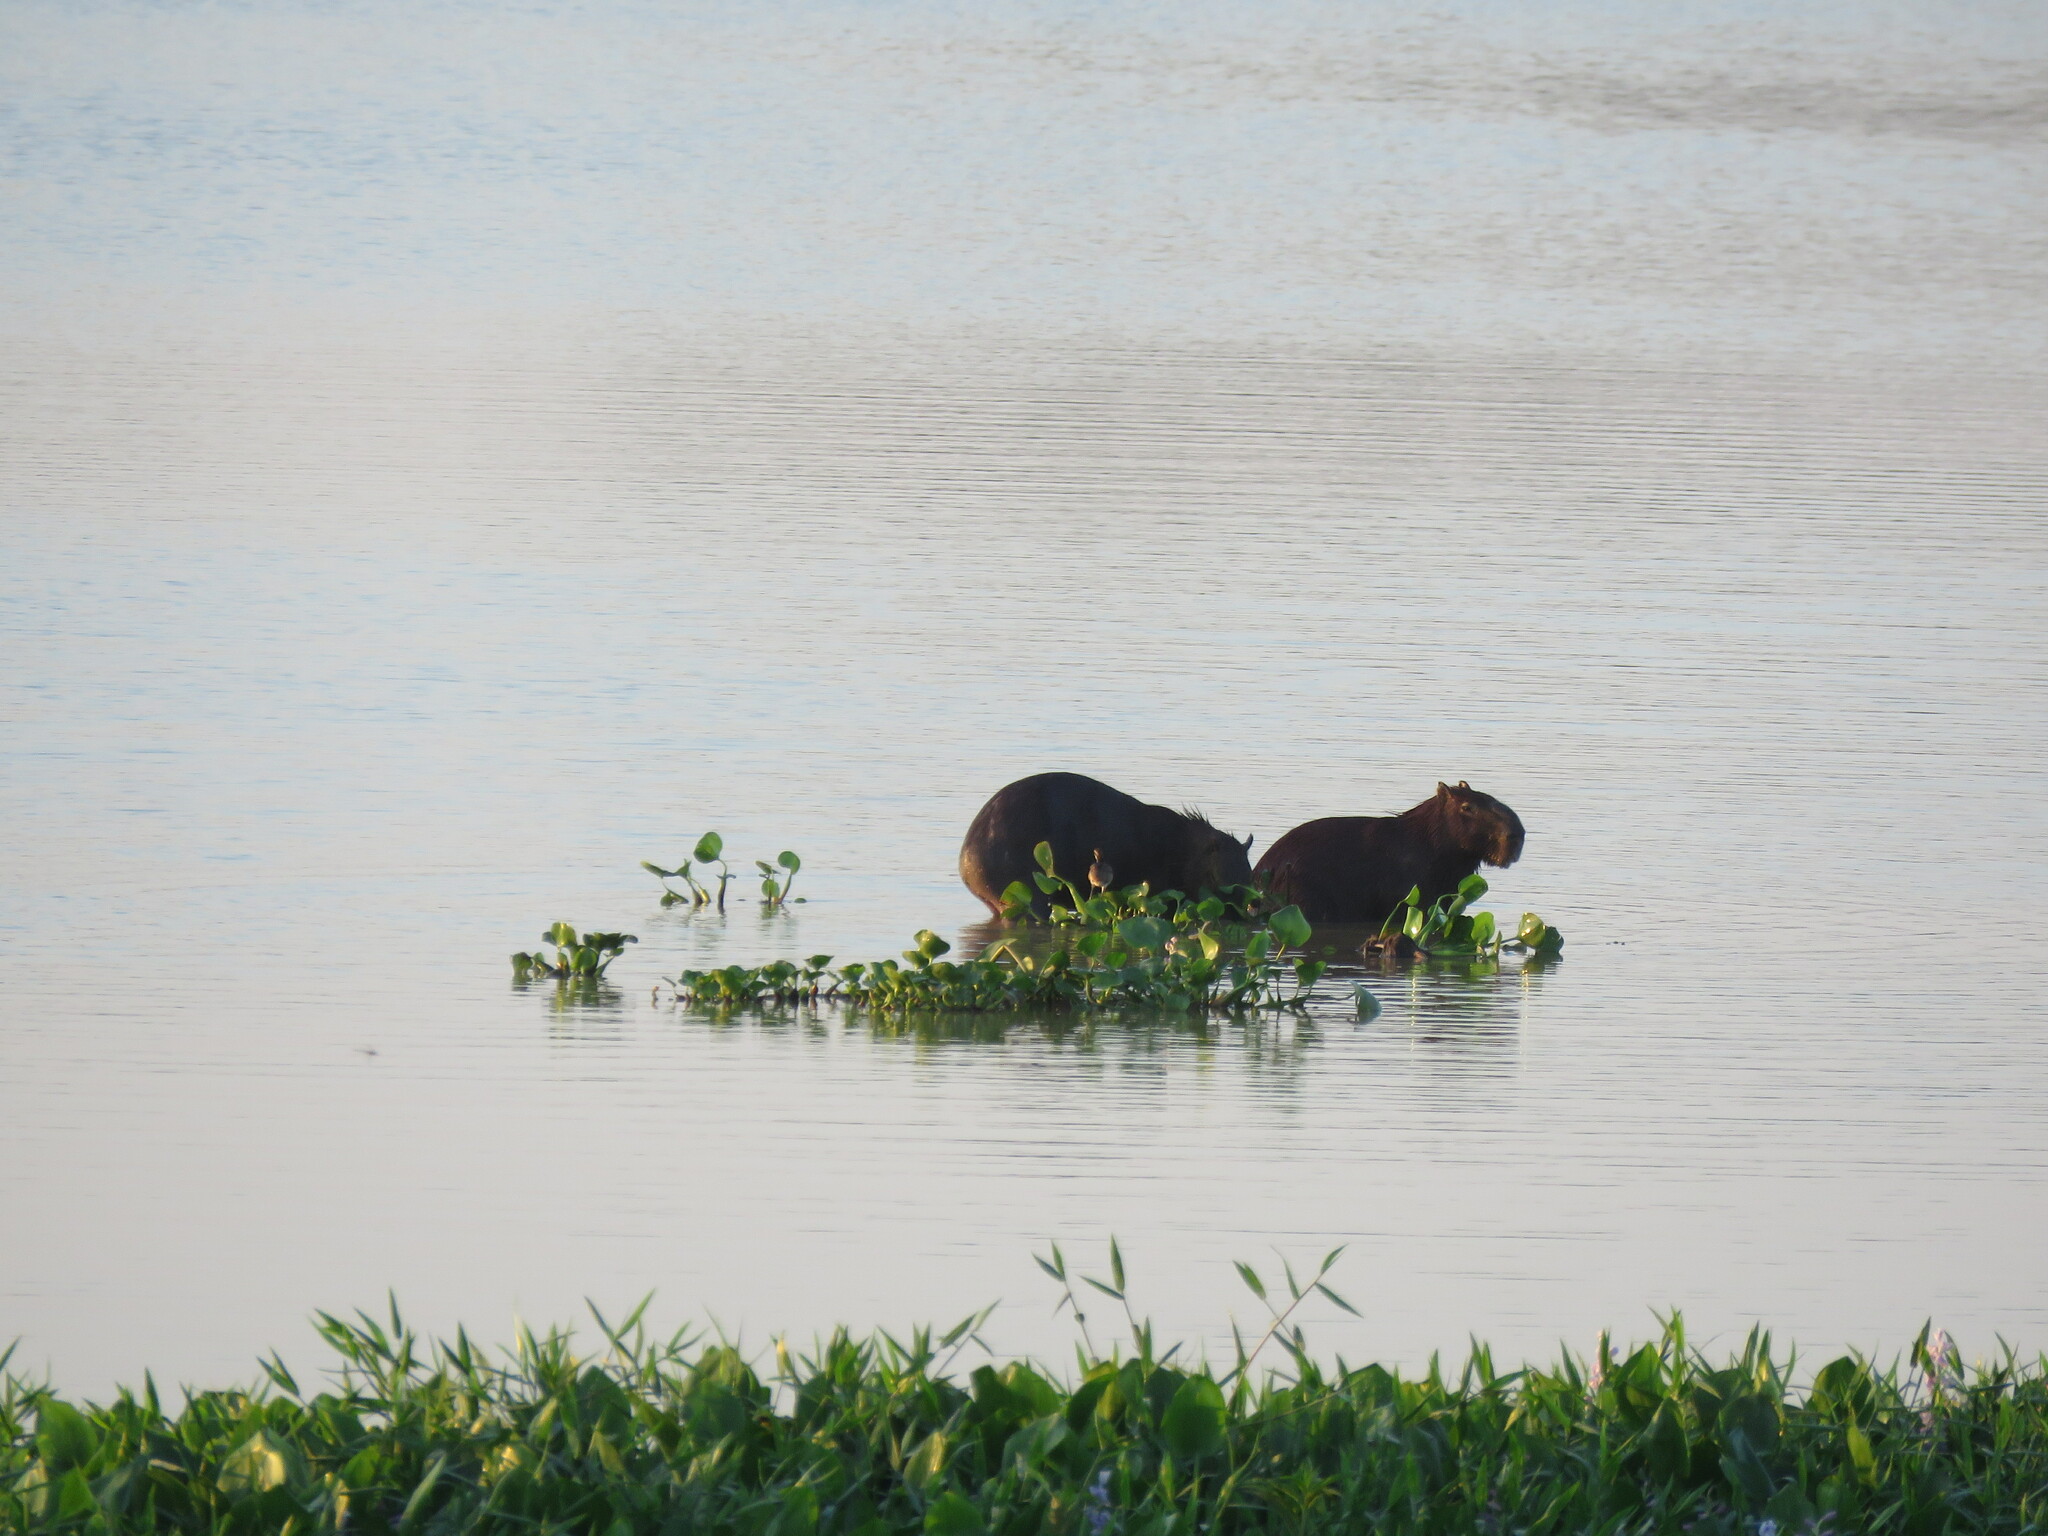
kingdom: Animalia
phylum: Chordata
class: Mammalia
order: Rodentia
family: Caviidae
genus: Hydrochoerus
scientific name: Hydrochoerus hydrochaeris
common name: Capybara
